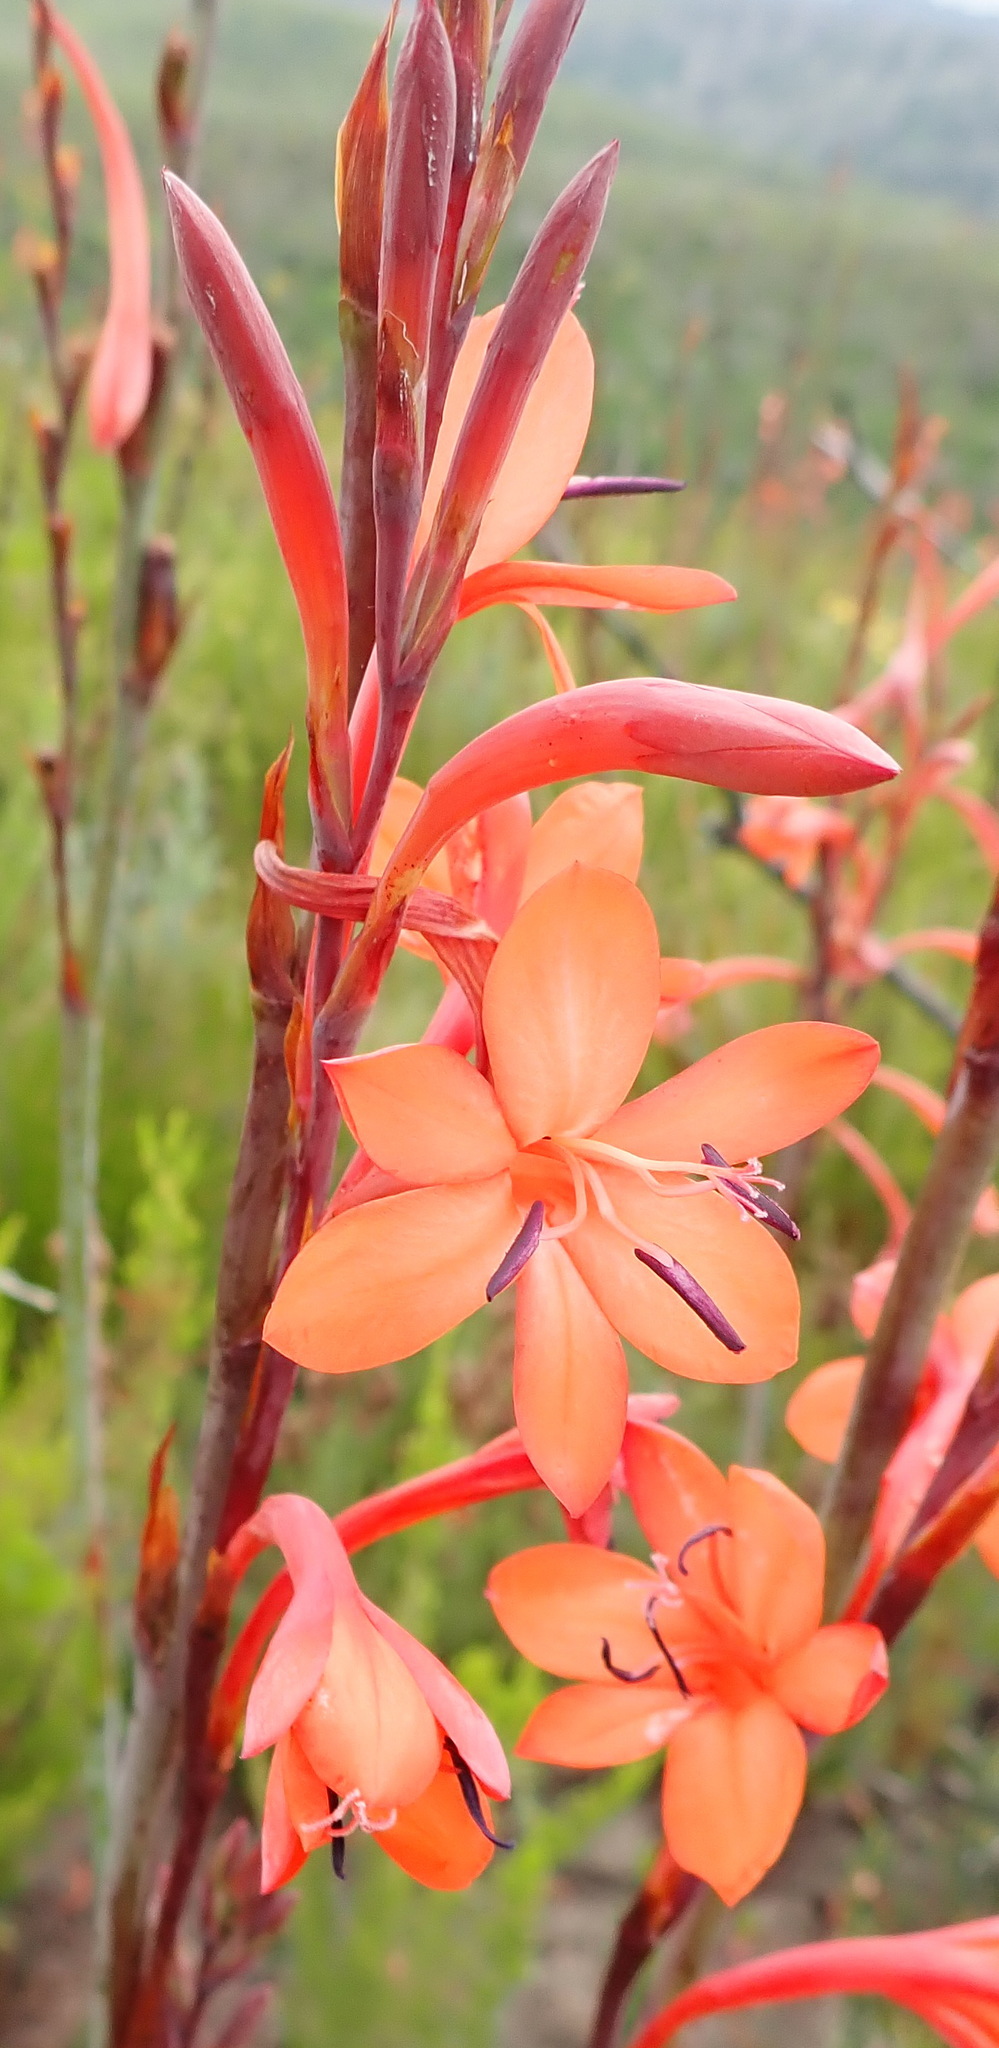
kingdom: Plantae
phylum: Tracheophyta
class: Liliopsida
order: Asparagales
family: Iridaceae
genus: Watsonia
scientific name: Watsonia pillansii
